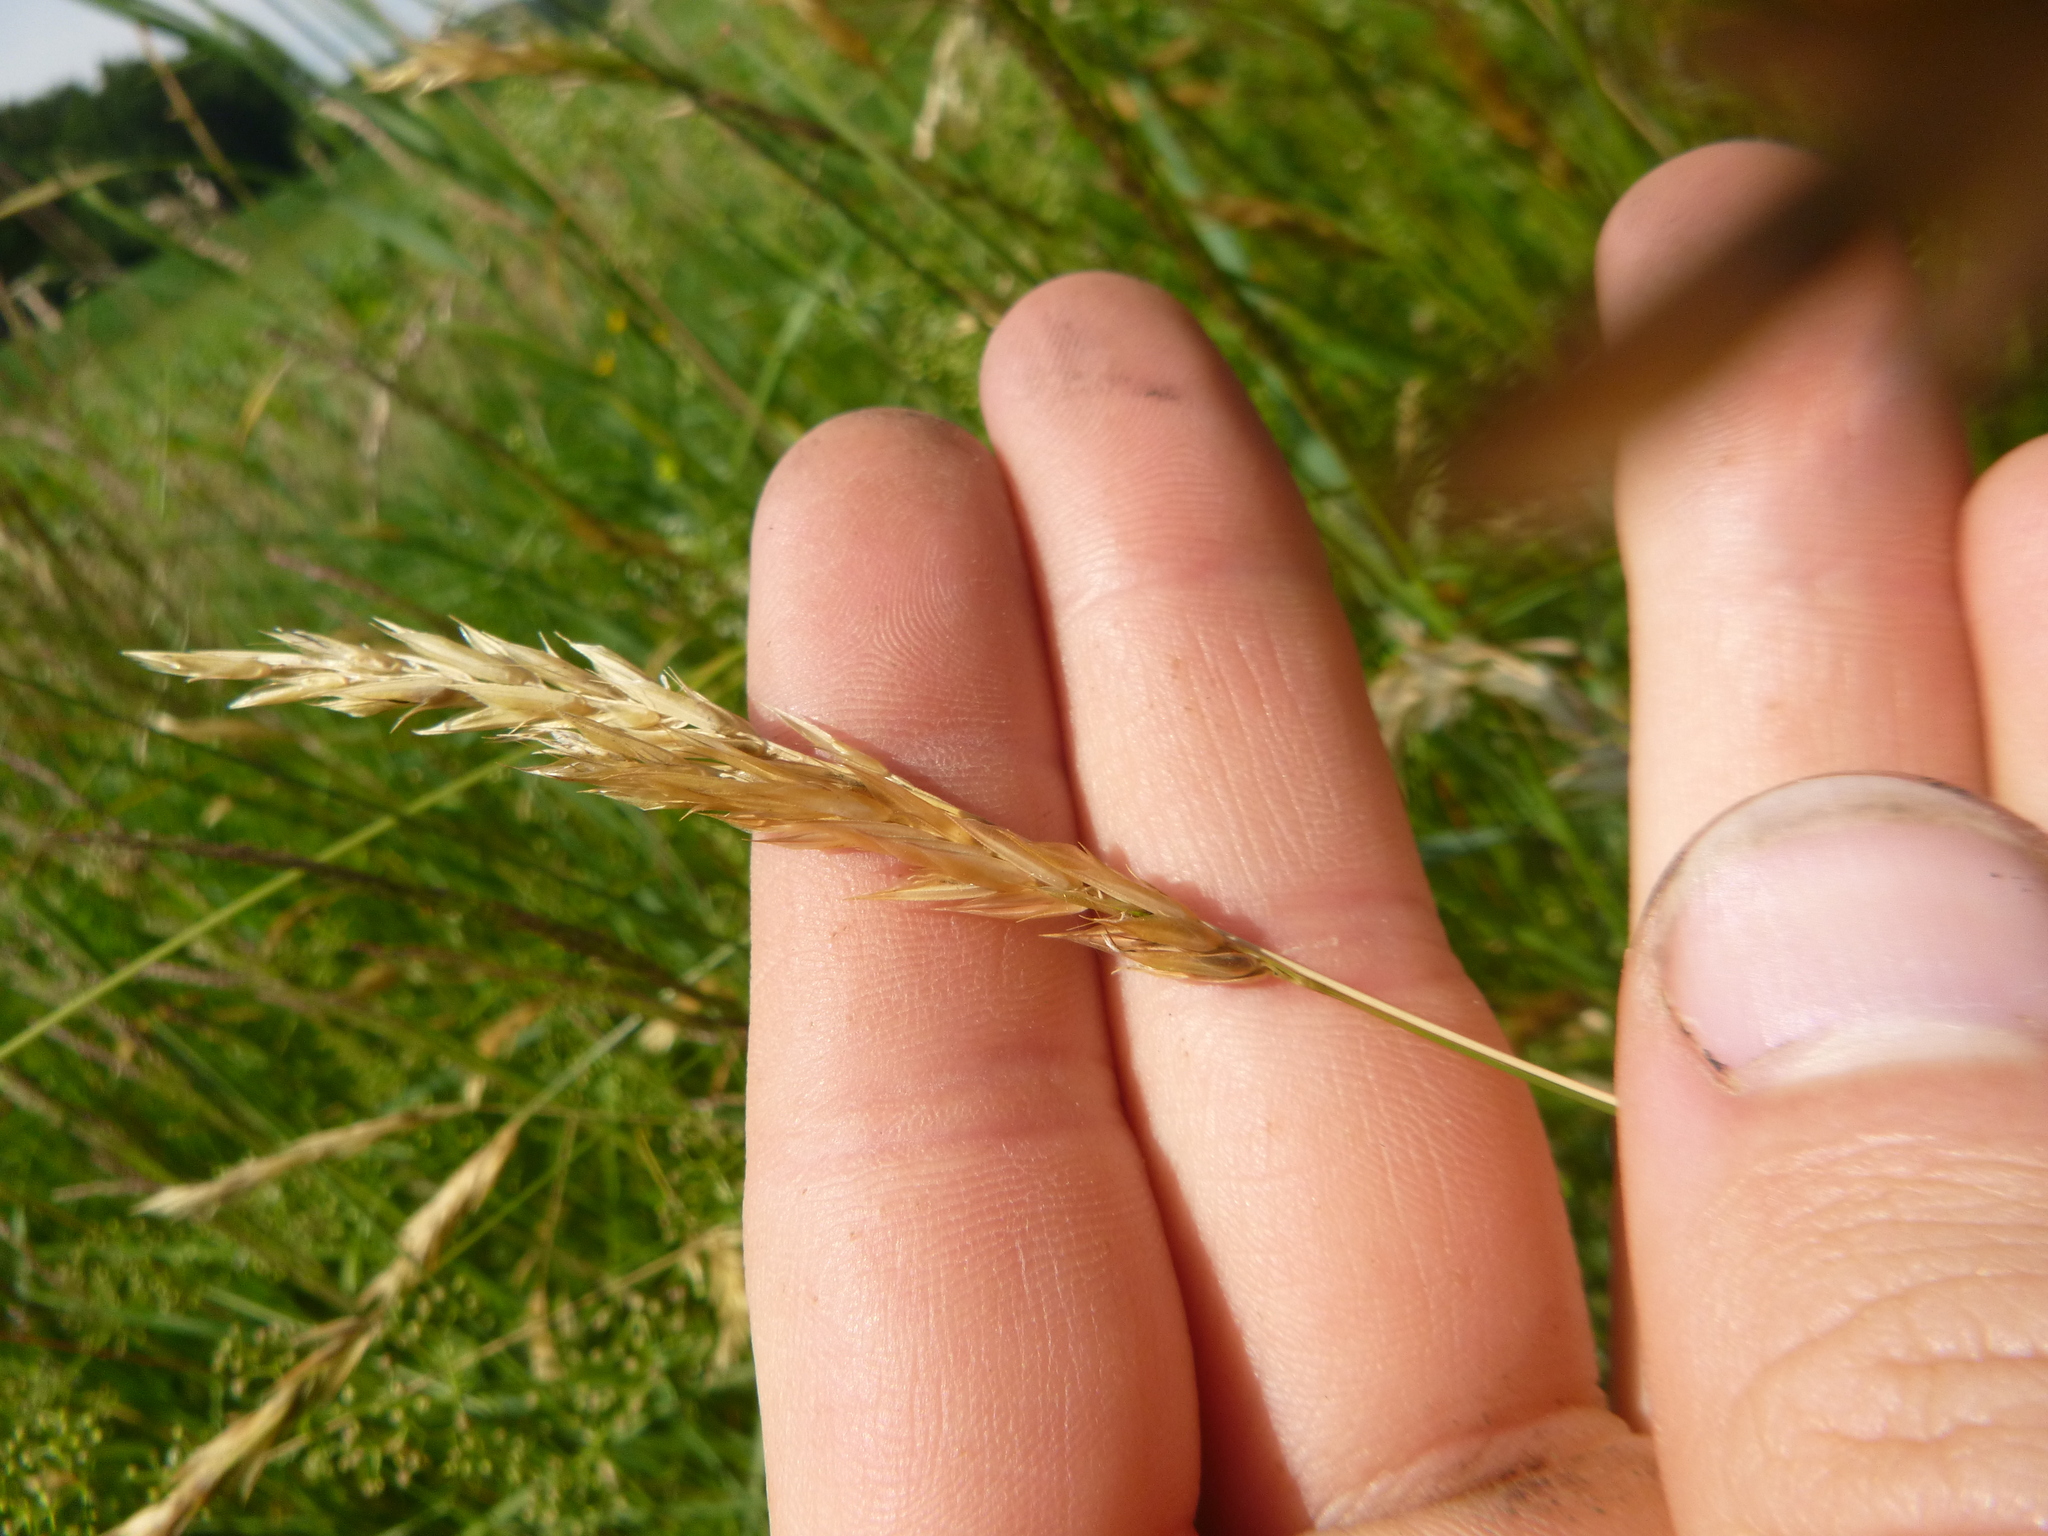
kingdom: Plantae
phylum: Tracheophyta
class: Liliopsida
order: Poales
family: Poaceae
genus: Anthoxanthum
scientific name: Anthoxanthum odoratum
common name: Sweet vernalgrass
